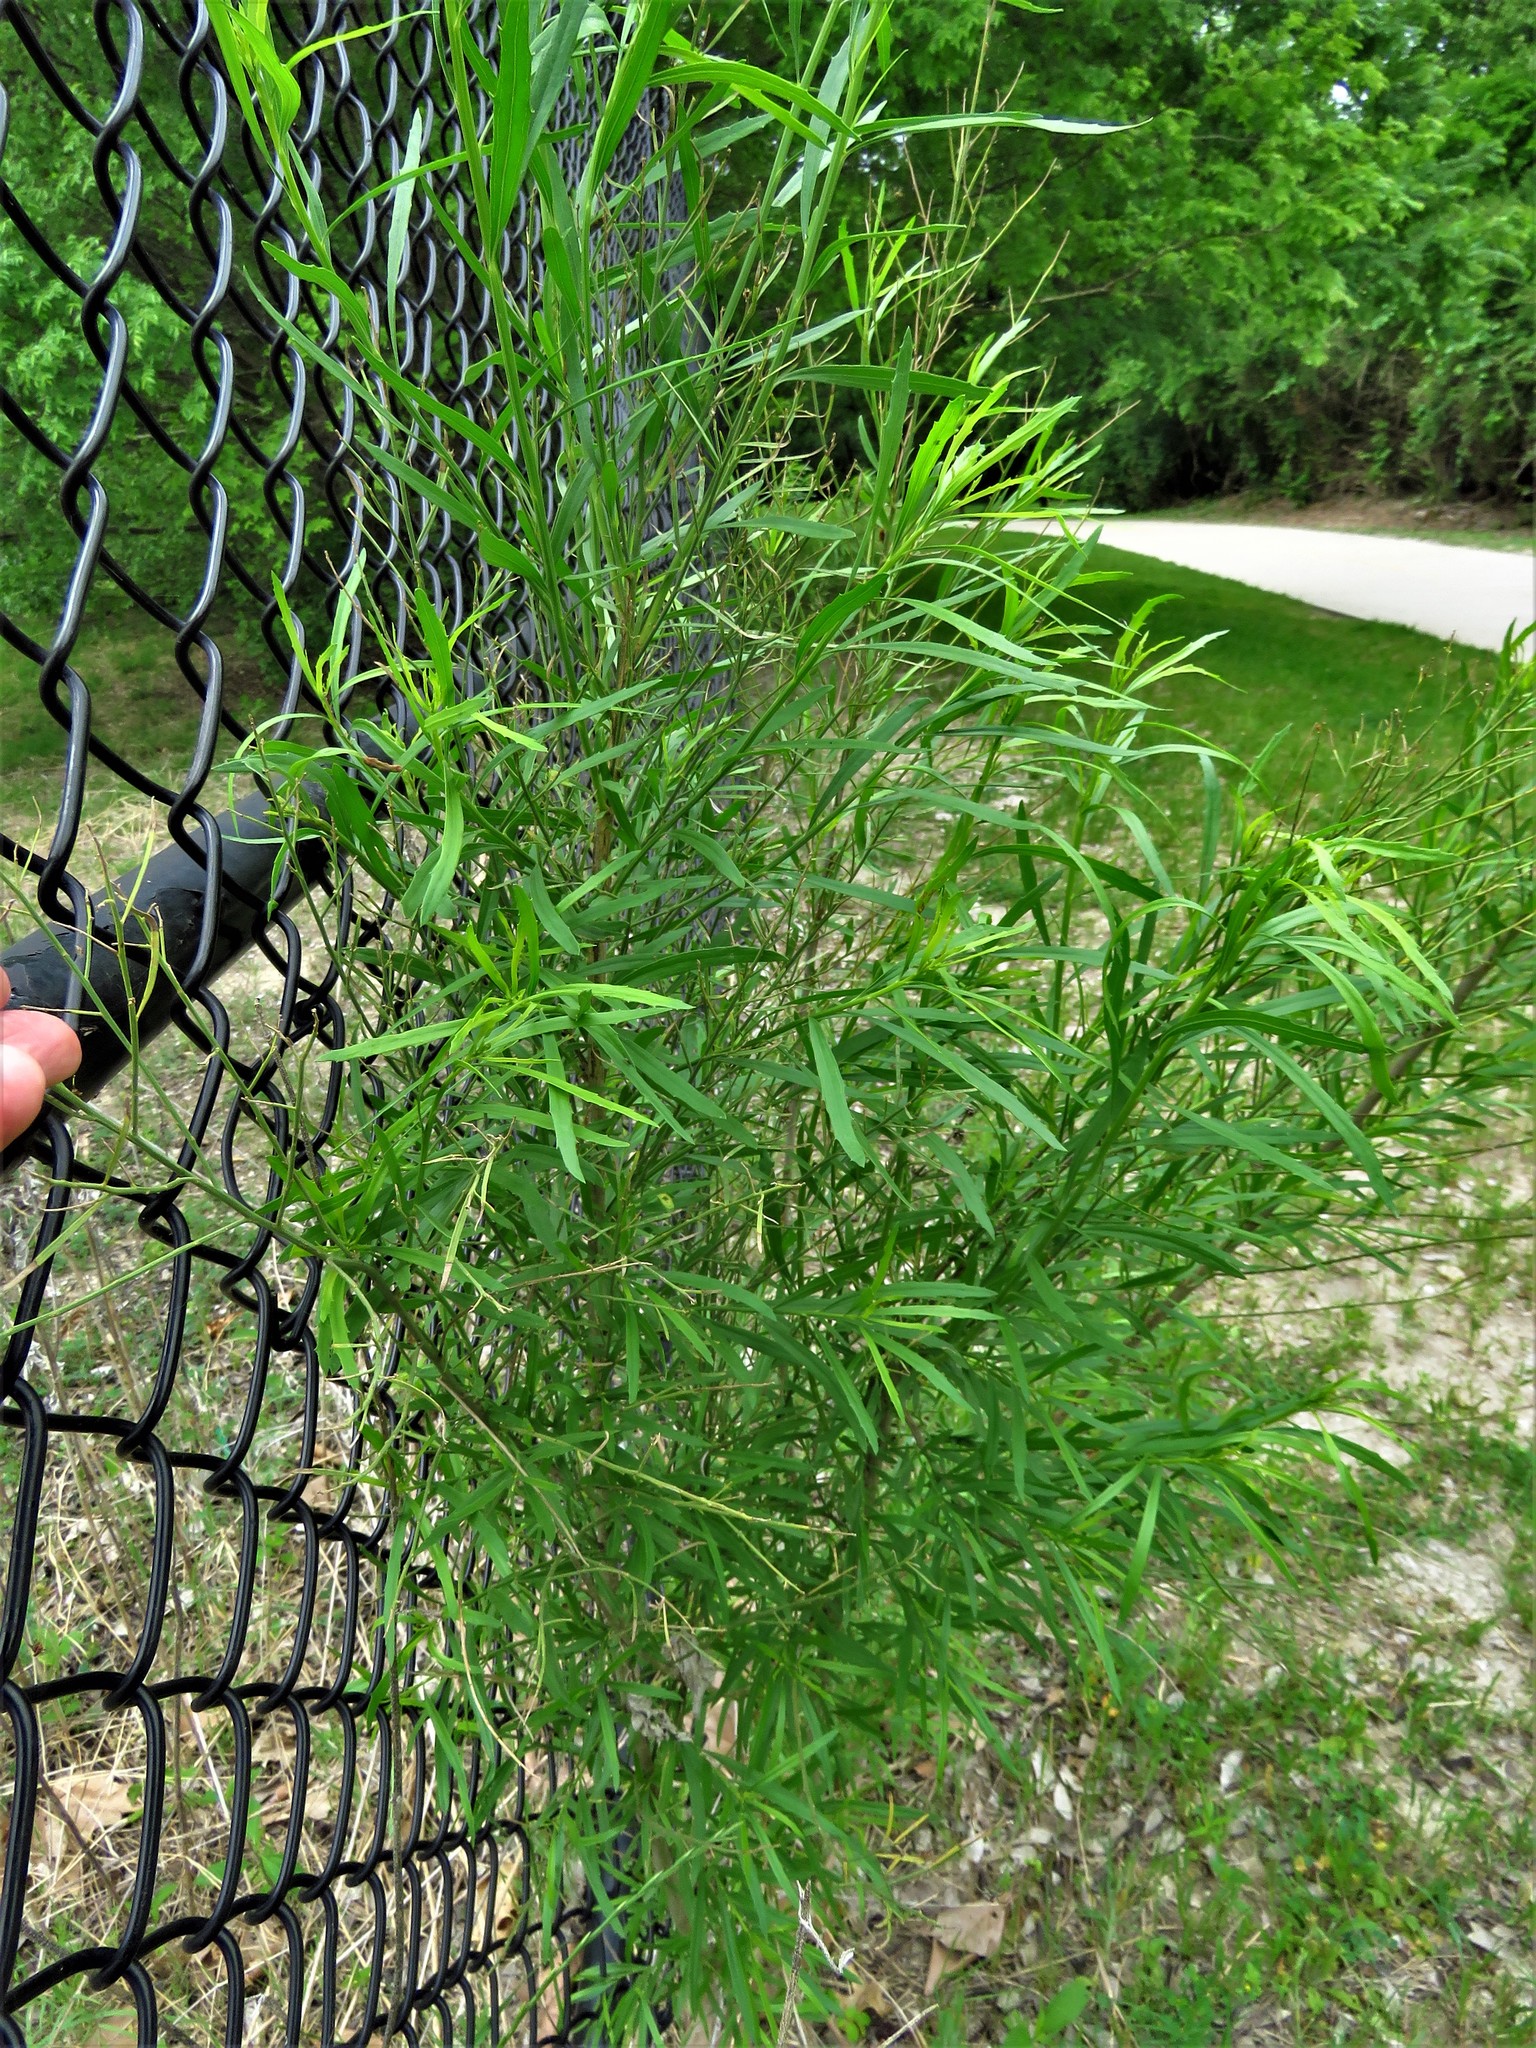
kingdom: Plantae
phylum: Tracheophyta
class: Magnoliopsida
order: Asterales
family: Asteraceae
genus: Baccharis
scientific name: Baccharis neglecta
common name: Roosevelt-weed
